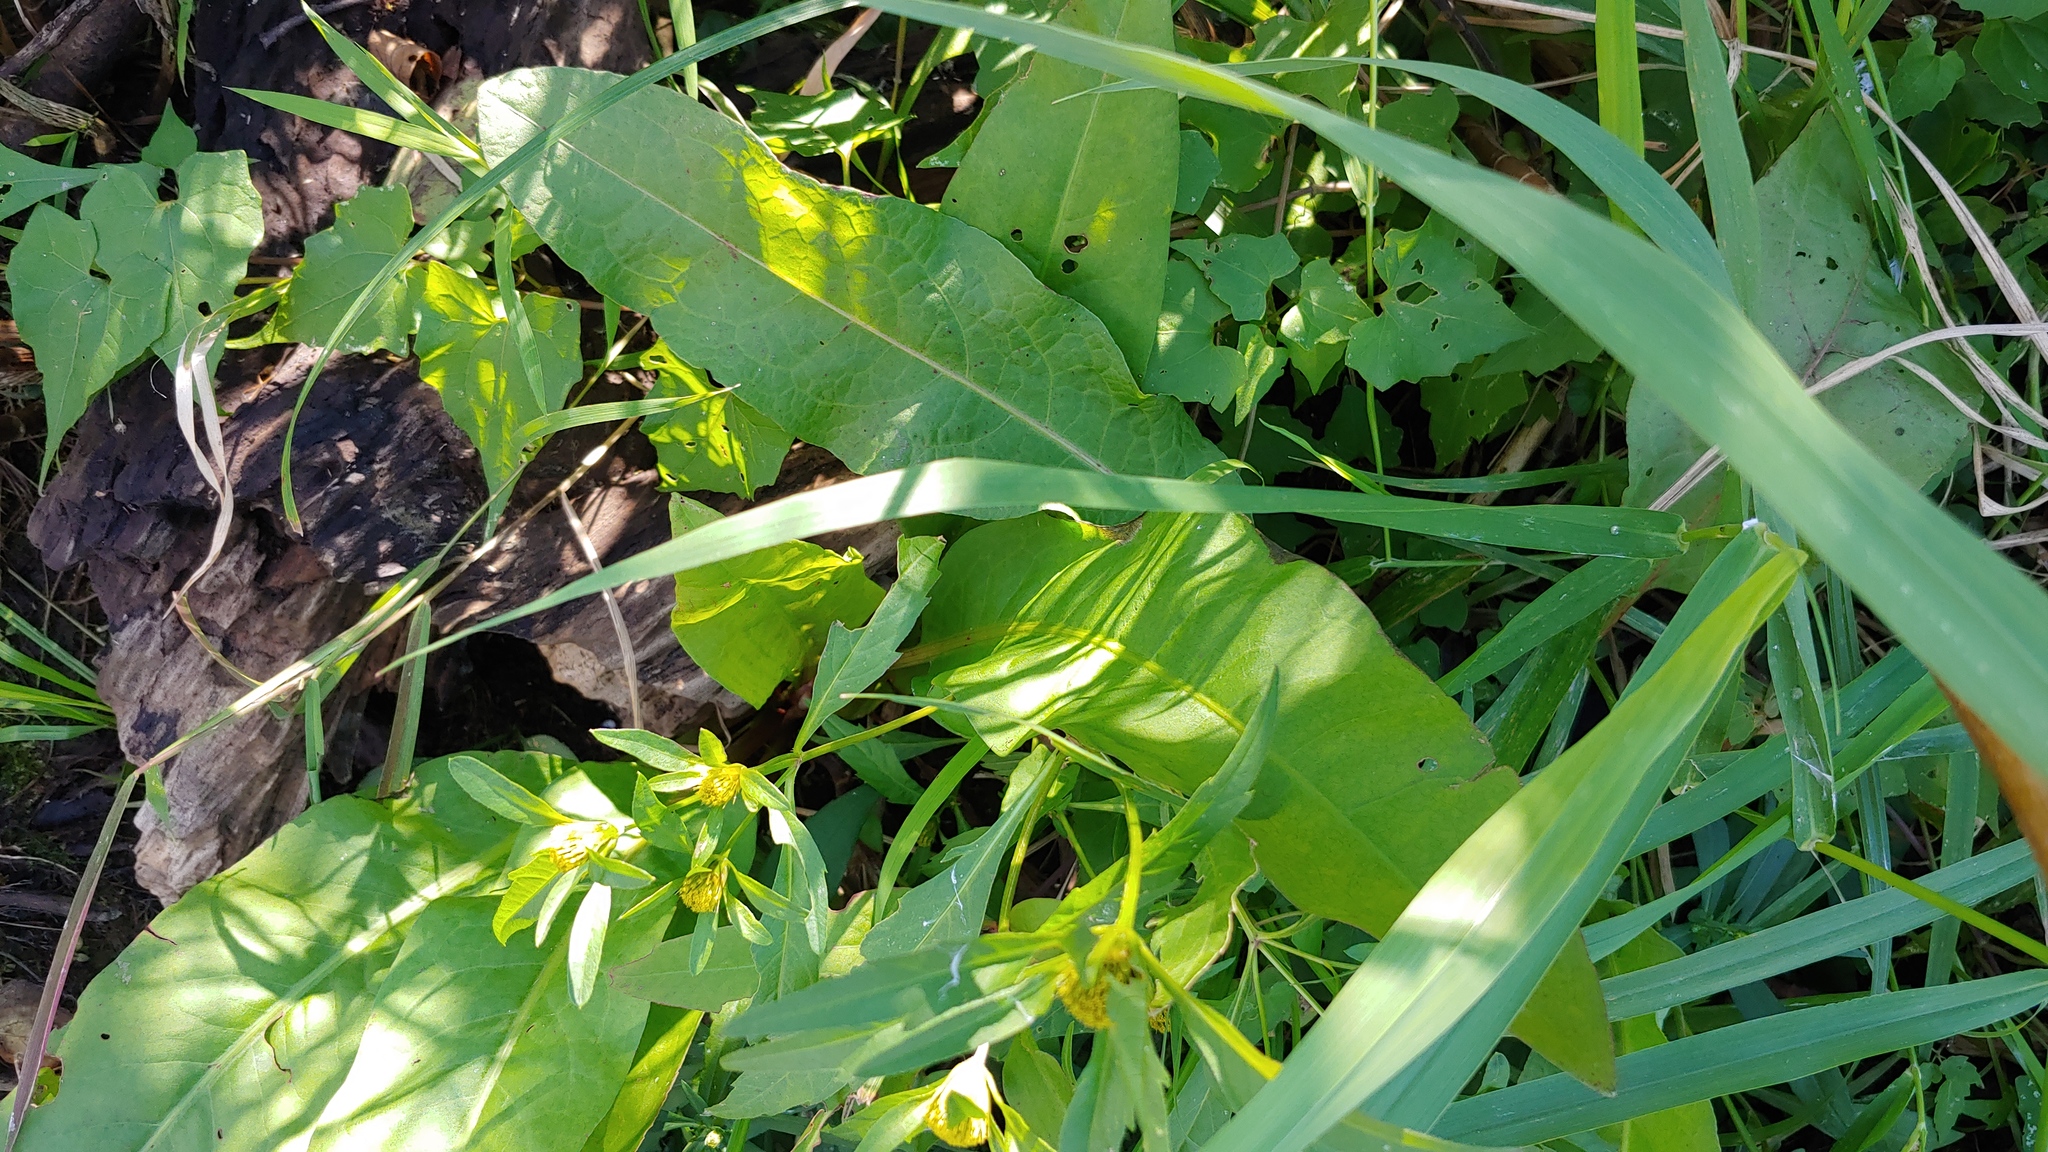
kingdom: Plantae
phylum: Tracheophyta
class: Magnoliopsida
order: Caryophyllales
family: Polygonaceae
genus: Rumex
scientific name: Rumex verticillatus
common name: Swamp dock
